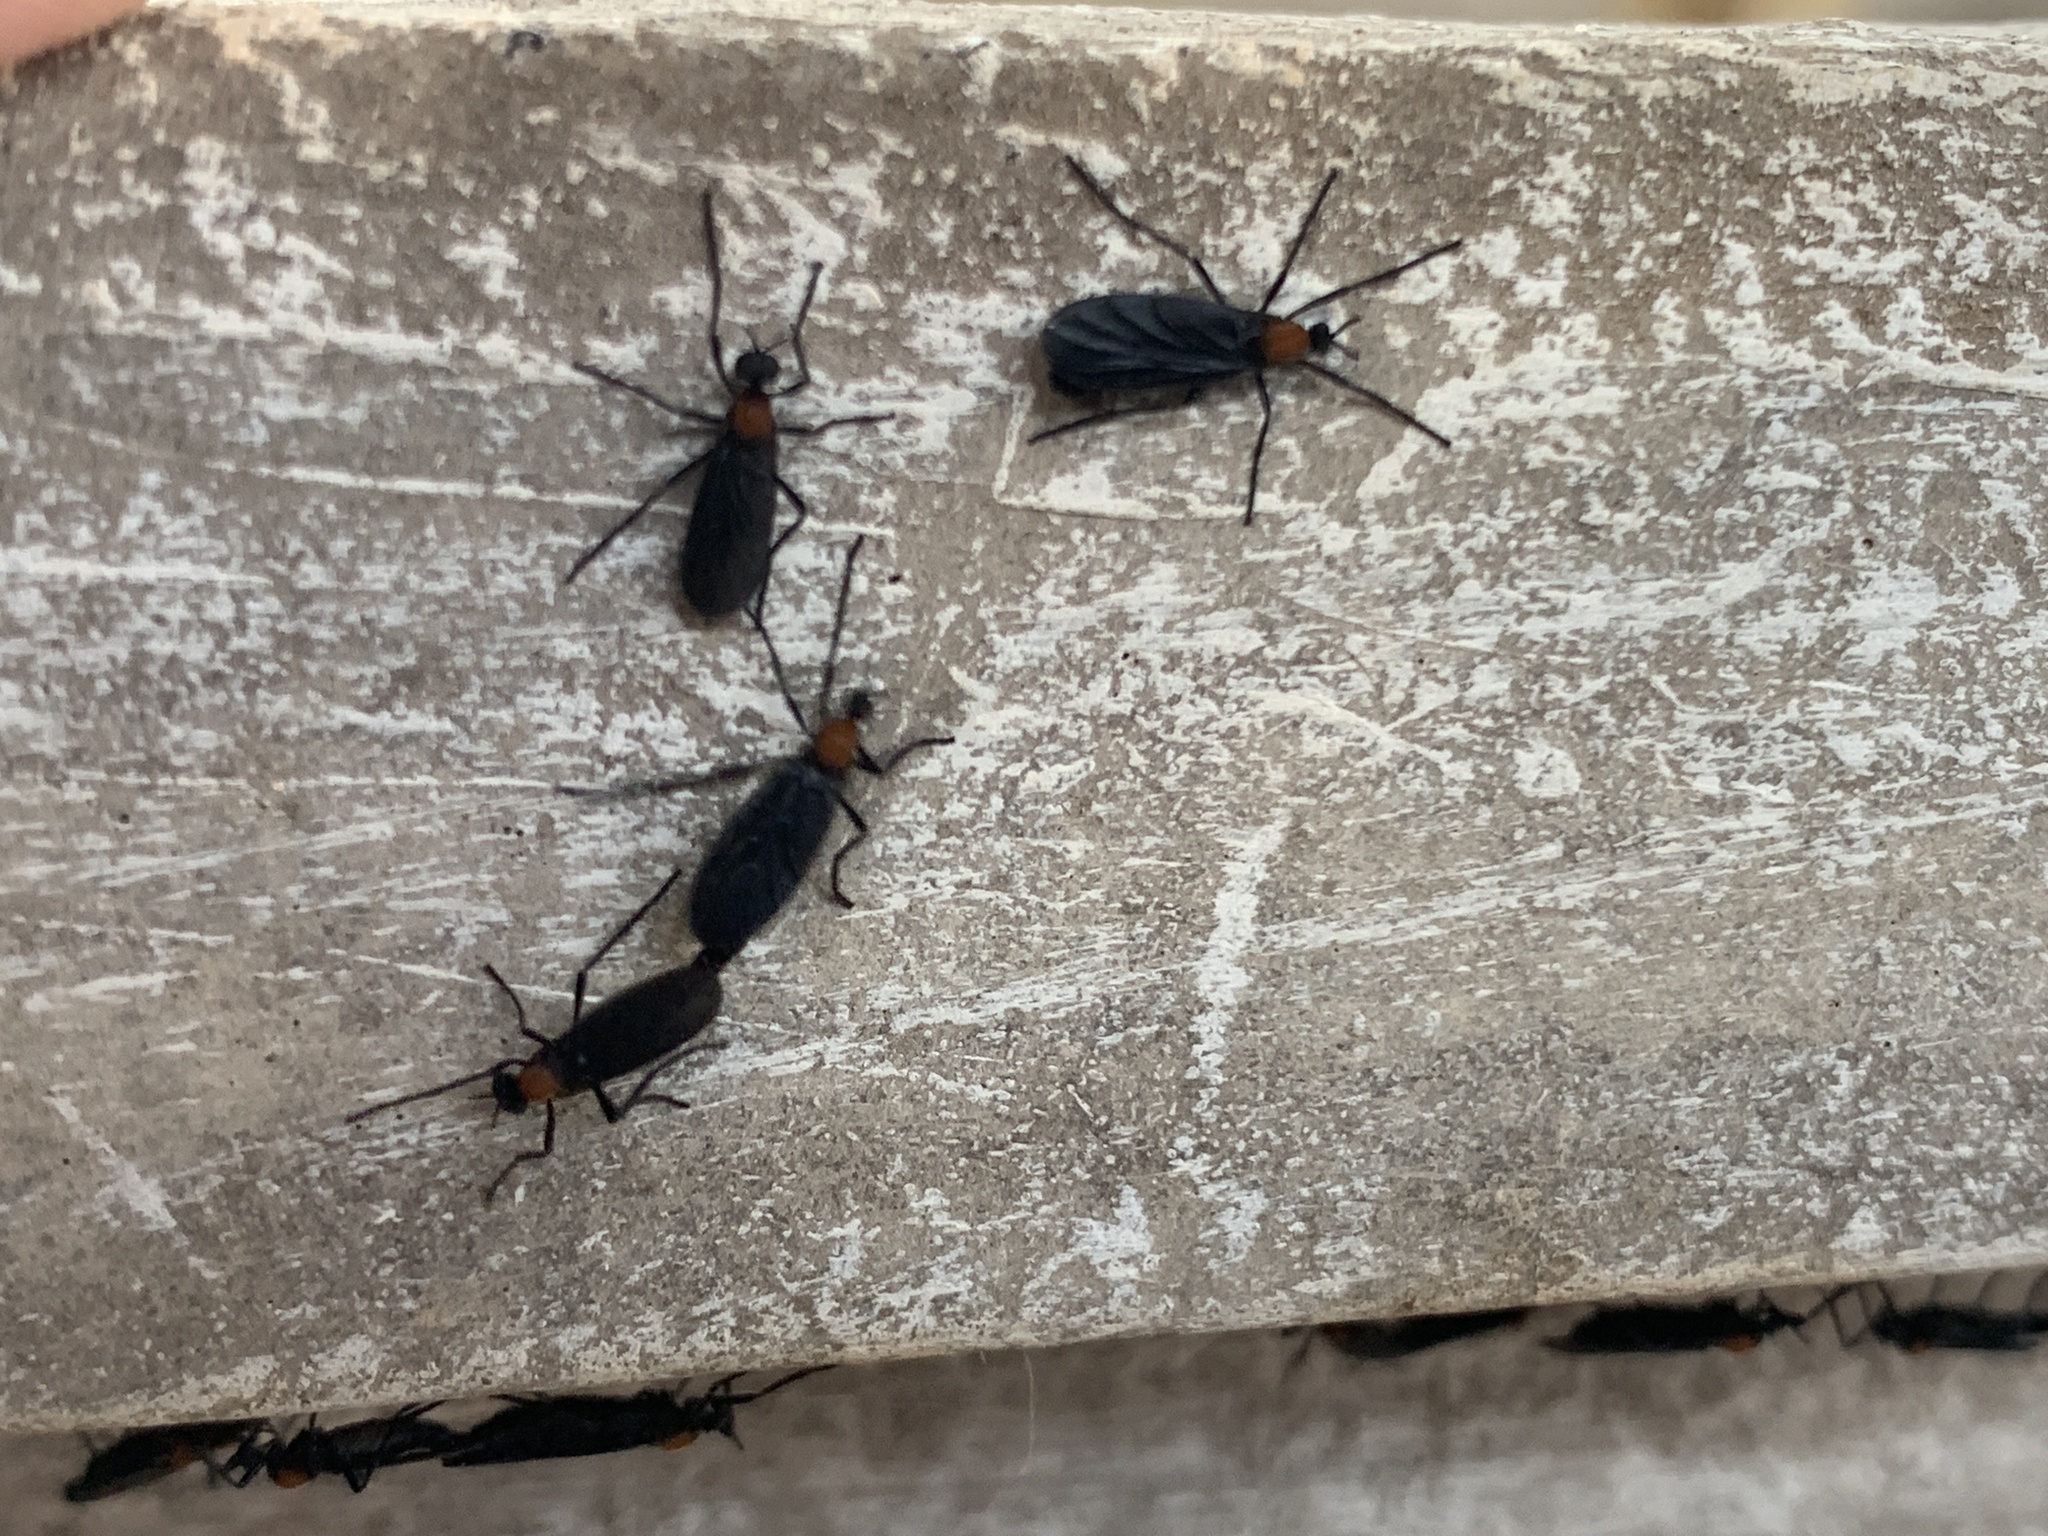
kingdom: Animalia
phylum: Arthropoda
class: Insecta
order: Diptera
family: Bibionidae
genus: Plecia
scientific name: Plecia ruficollis
